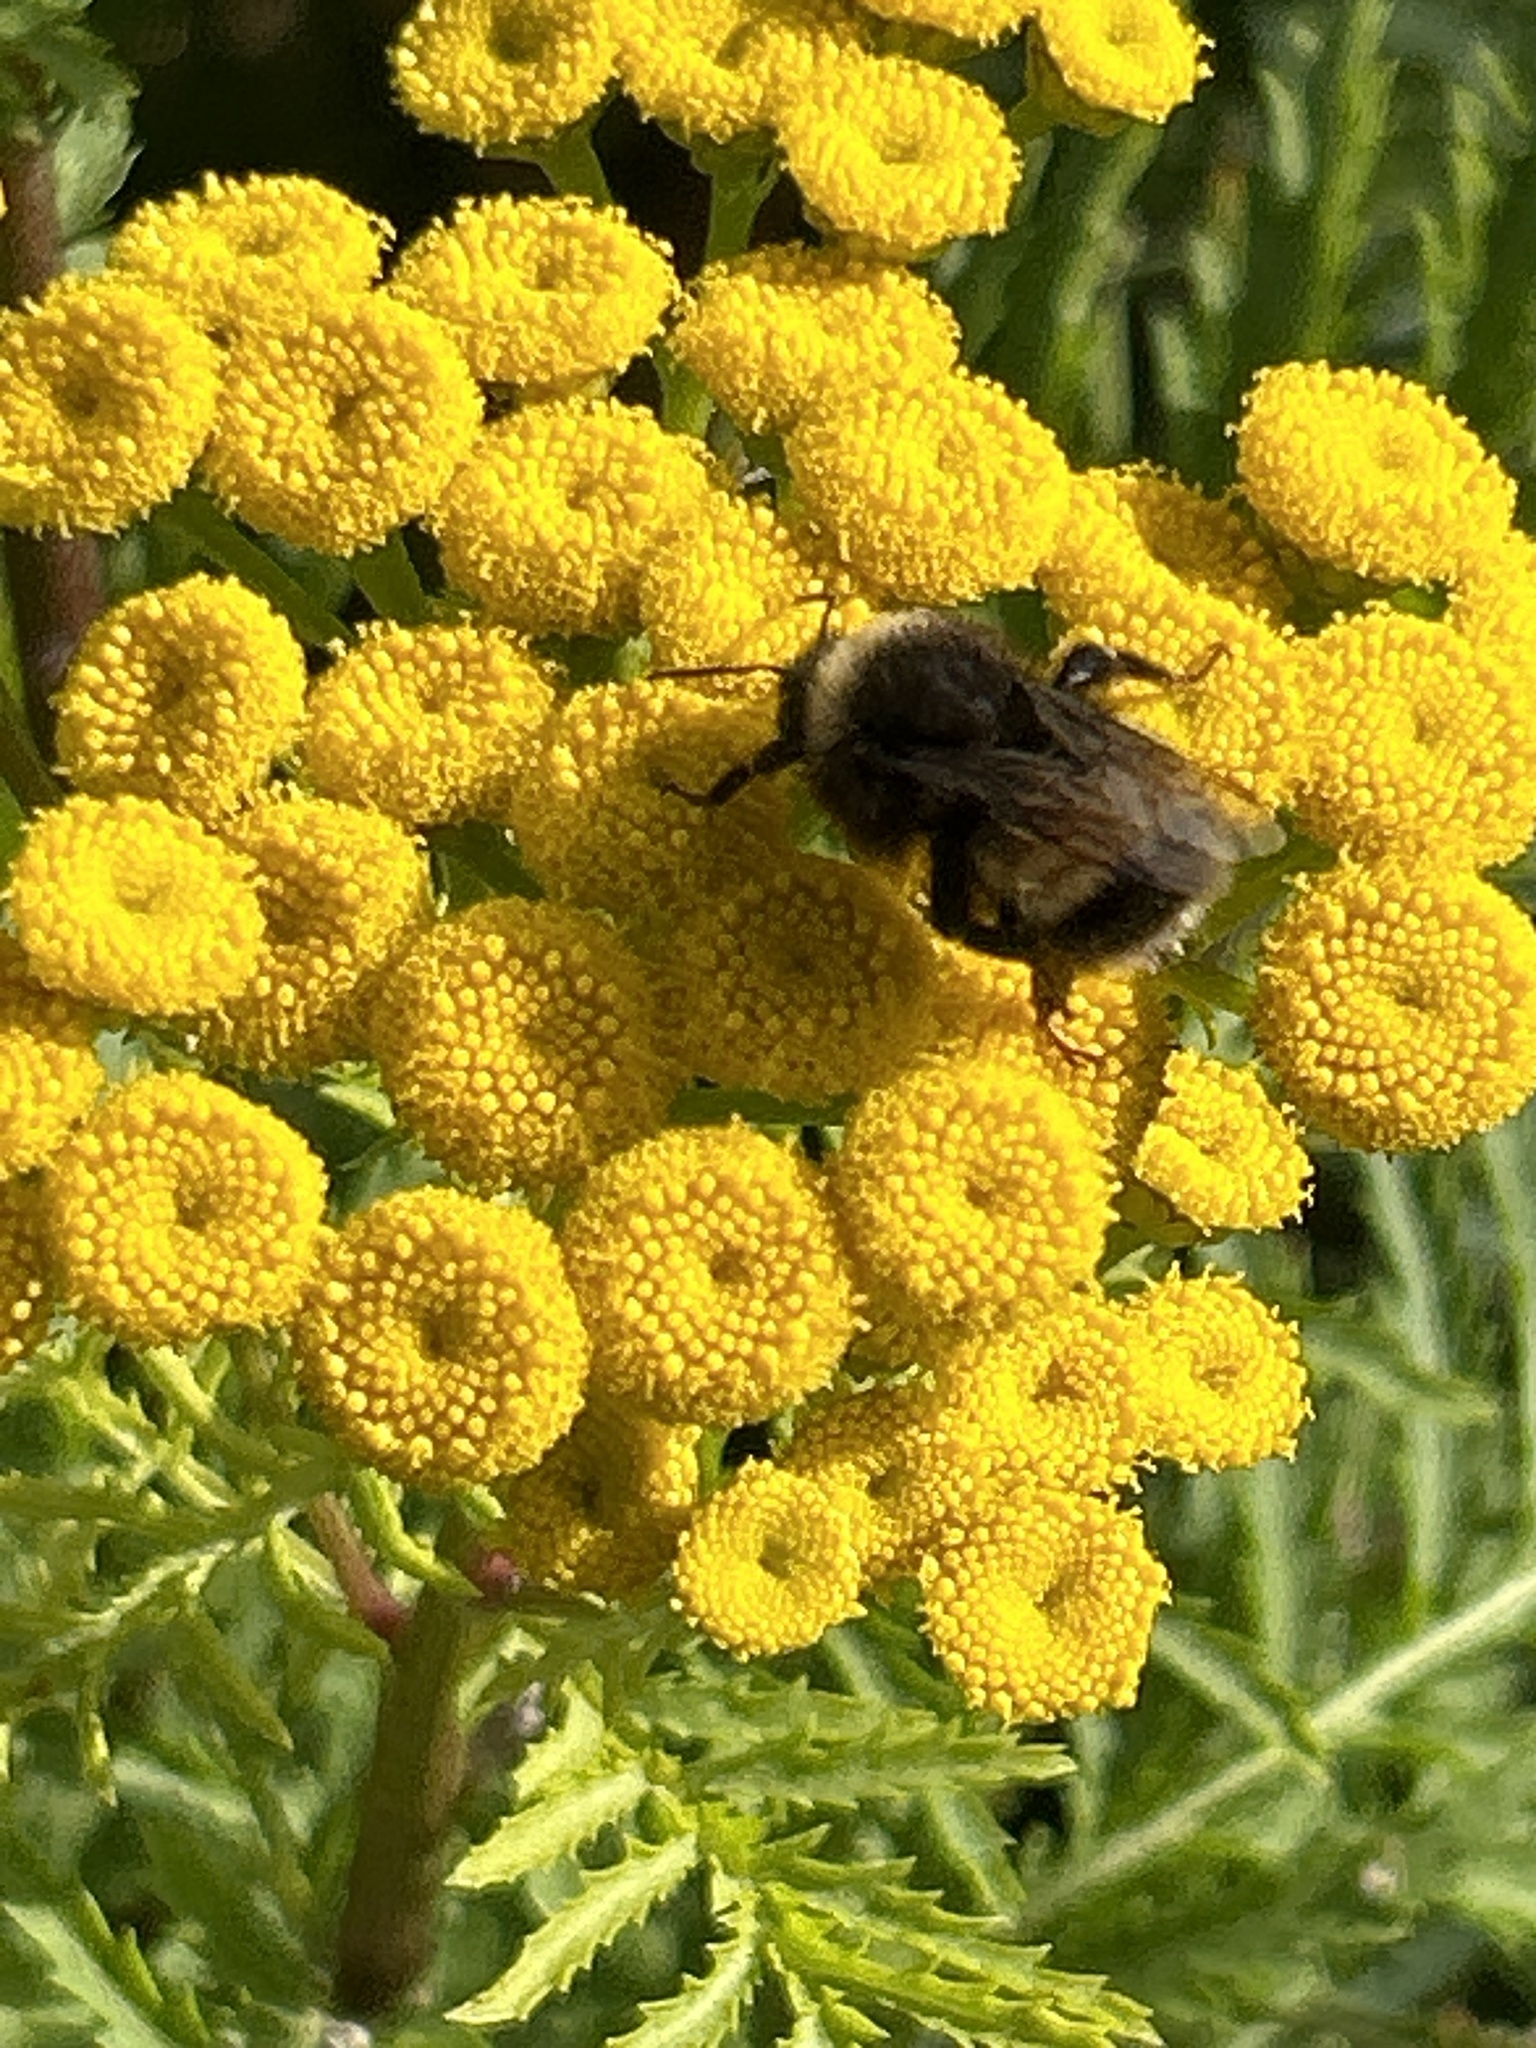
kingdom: Animalia
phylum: Arthropoda
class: Insecta
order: Hymenoptera
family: Apidae
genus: Bombus
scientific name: Bombus terricola
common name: Yellow-banded bumble bee
